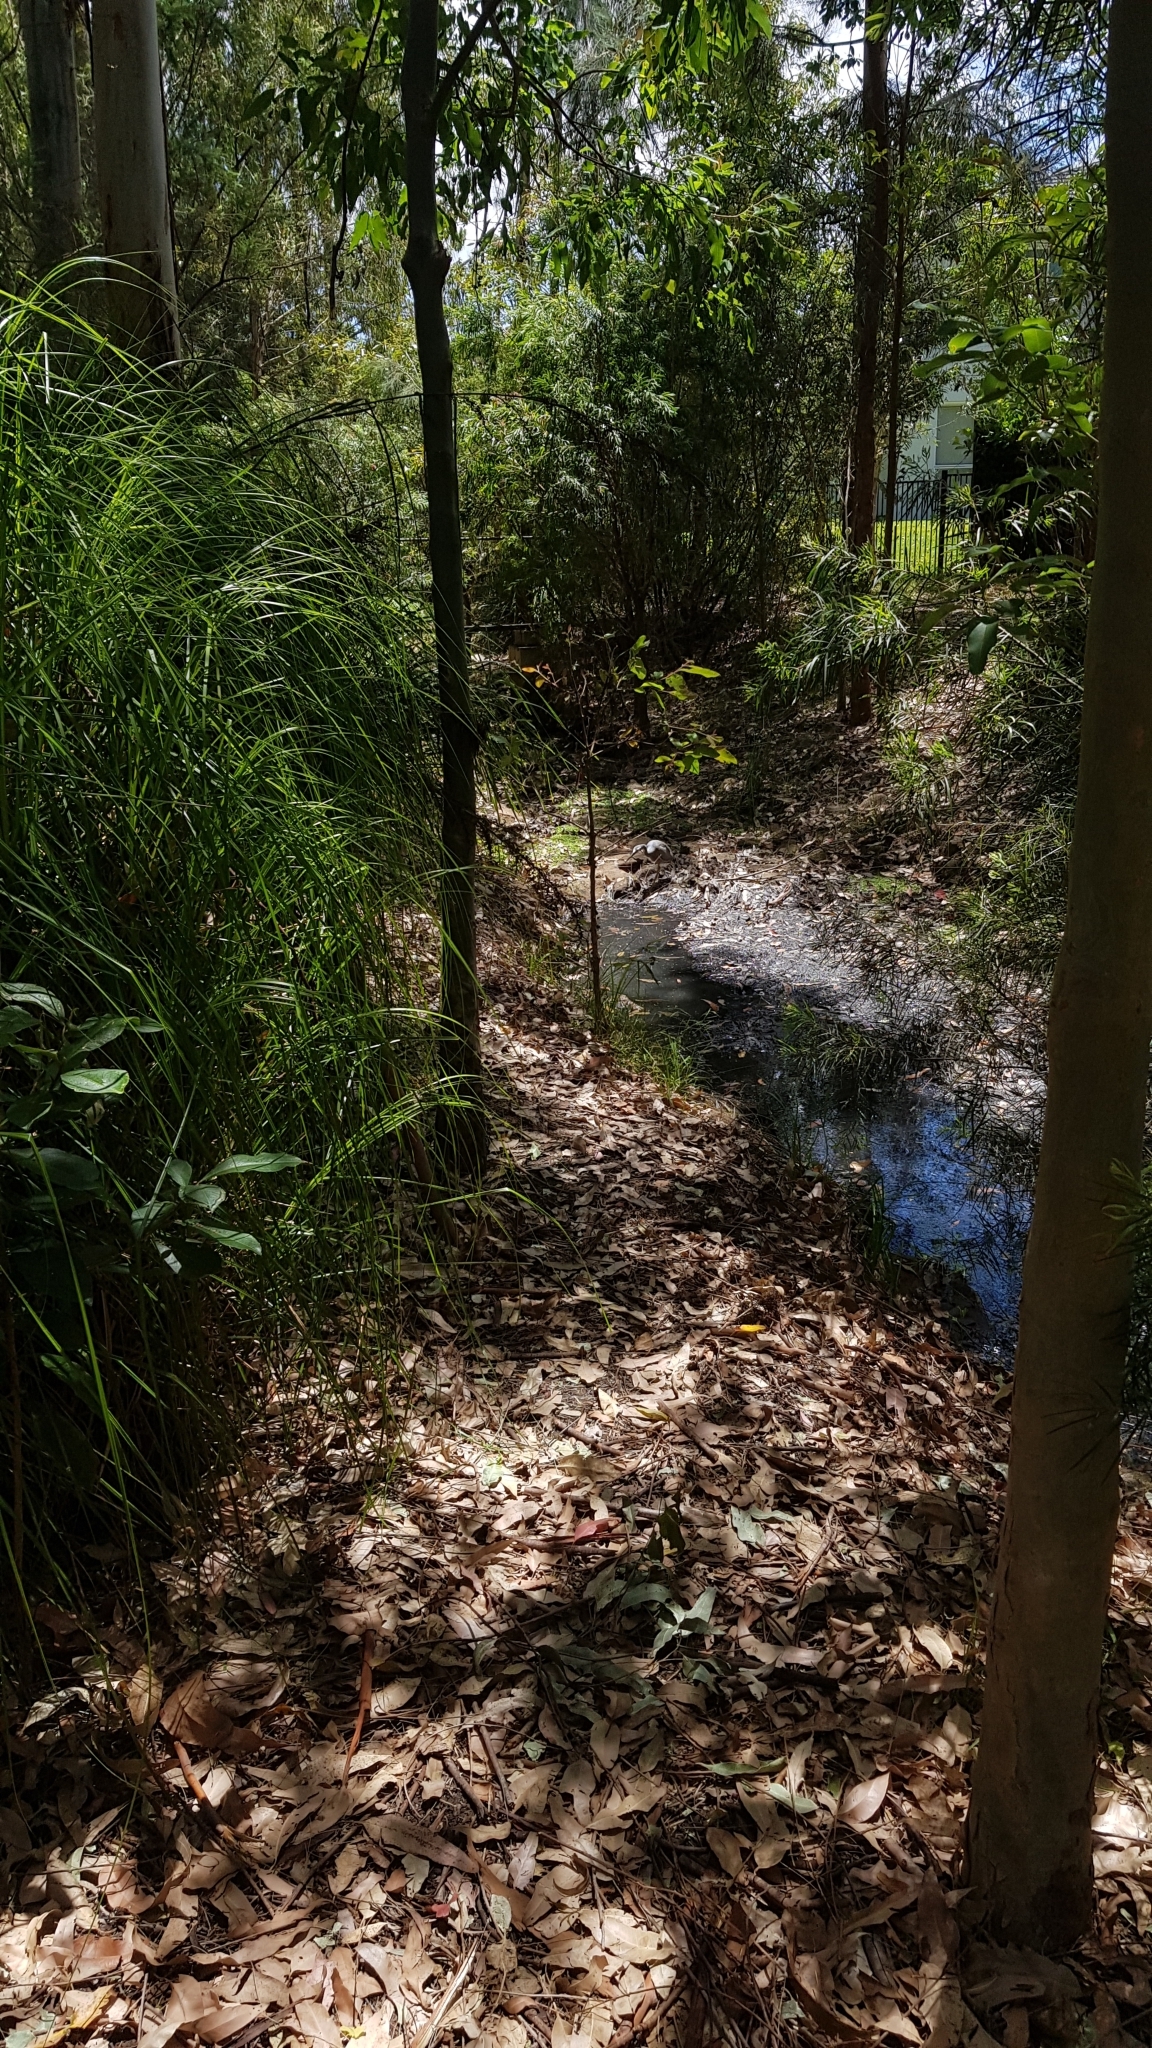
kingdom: Animalia
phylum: Chordata
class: Aves
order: Pelecaniformes
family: Ardeidae
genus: Egretta
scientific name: Egretta novaehollandiae
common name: White-faced heron
